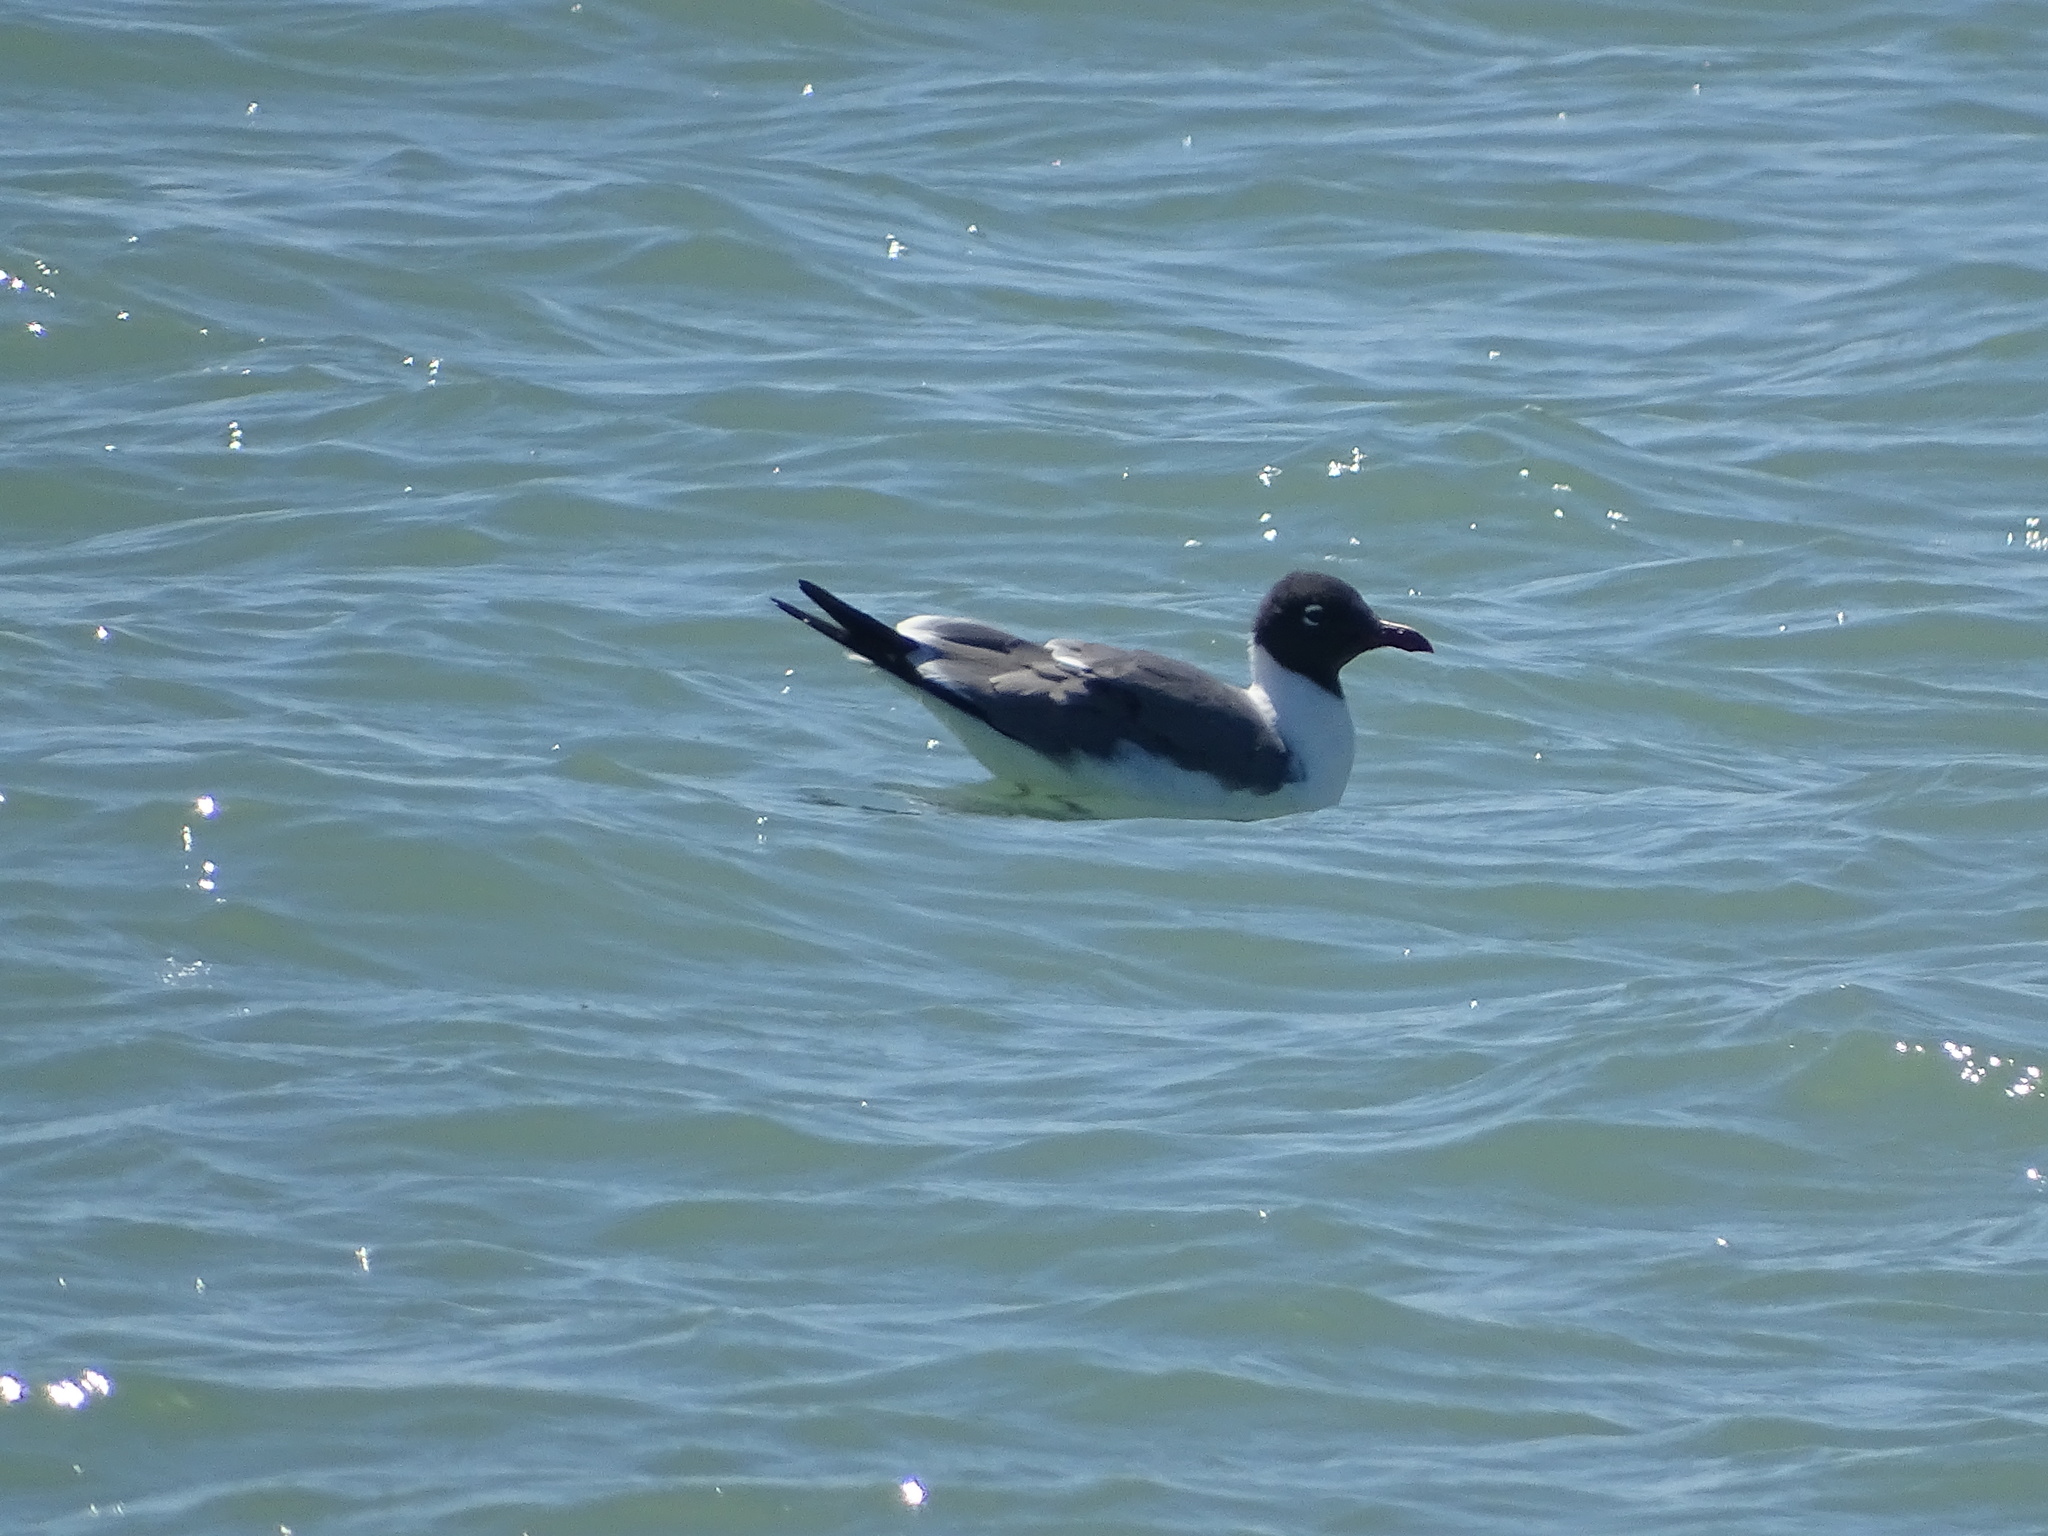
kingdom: Animalia
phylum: Chordata
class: Aves
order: Charadriiformes
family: Laridae
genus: Leucophaeus
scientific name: Leucophaeus atricilla
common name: Laughing gull
